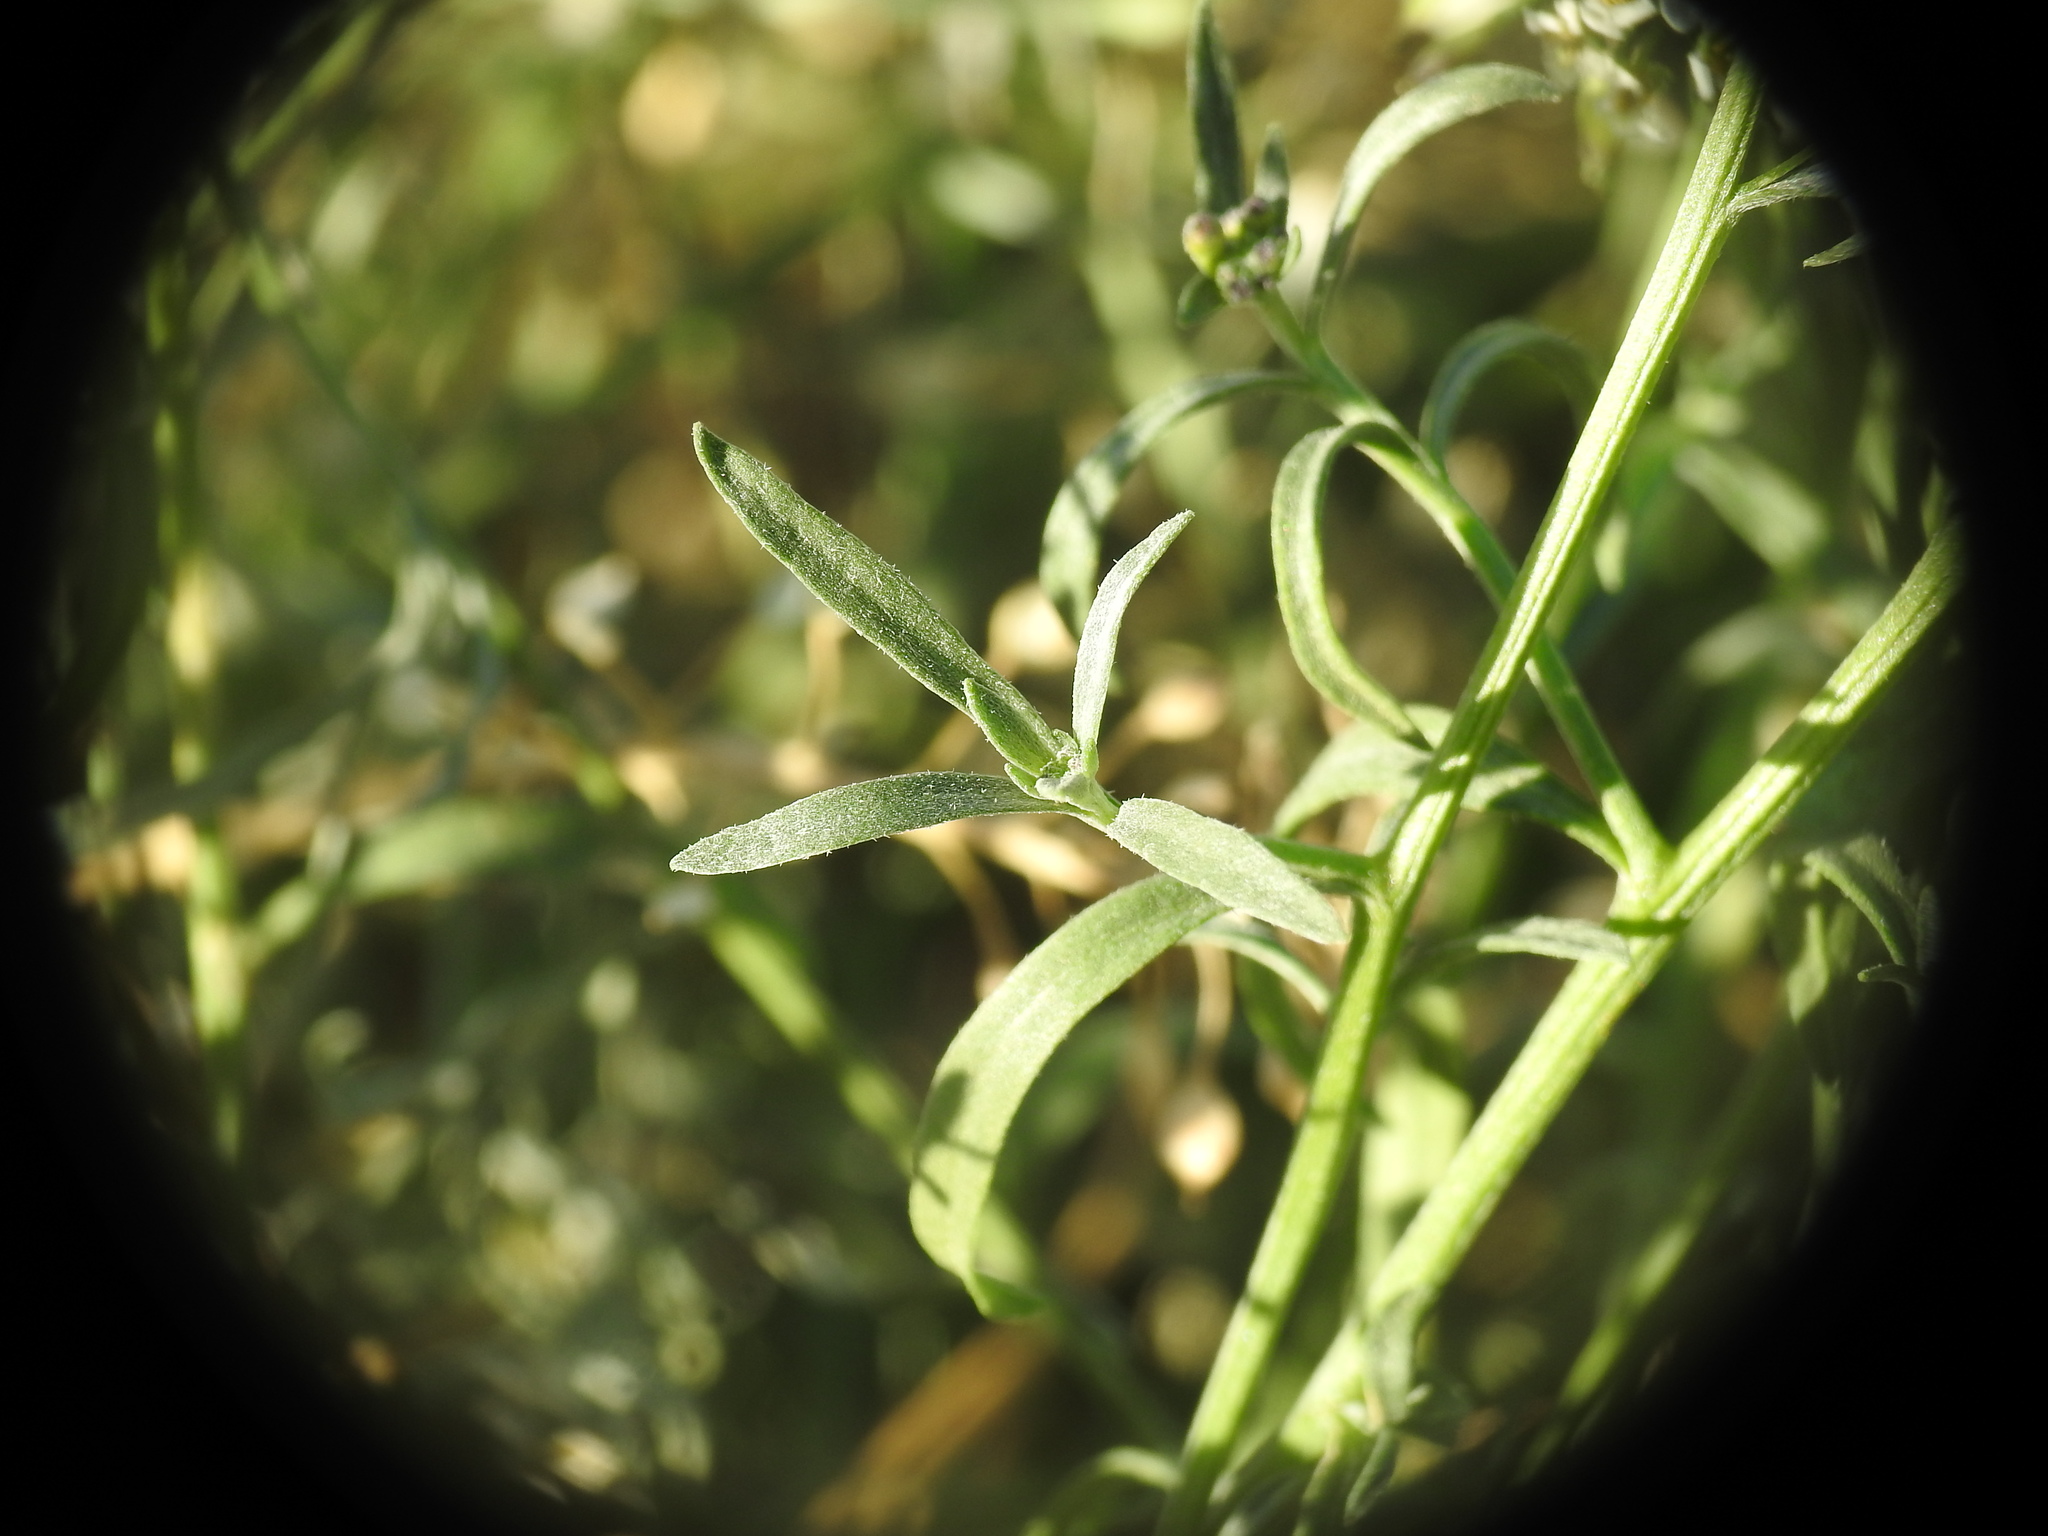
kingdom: Plantae
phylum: Tracheophyta
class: Magnoliopsida
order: Brassicales
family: Brassicaceae
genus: Lobularia
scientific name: Lobularia maritima
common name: Sweet alison
